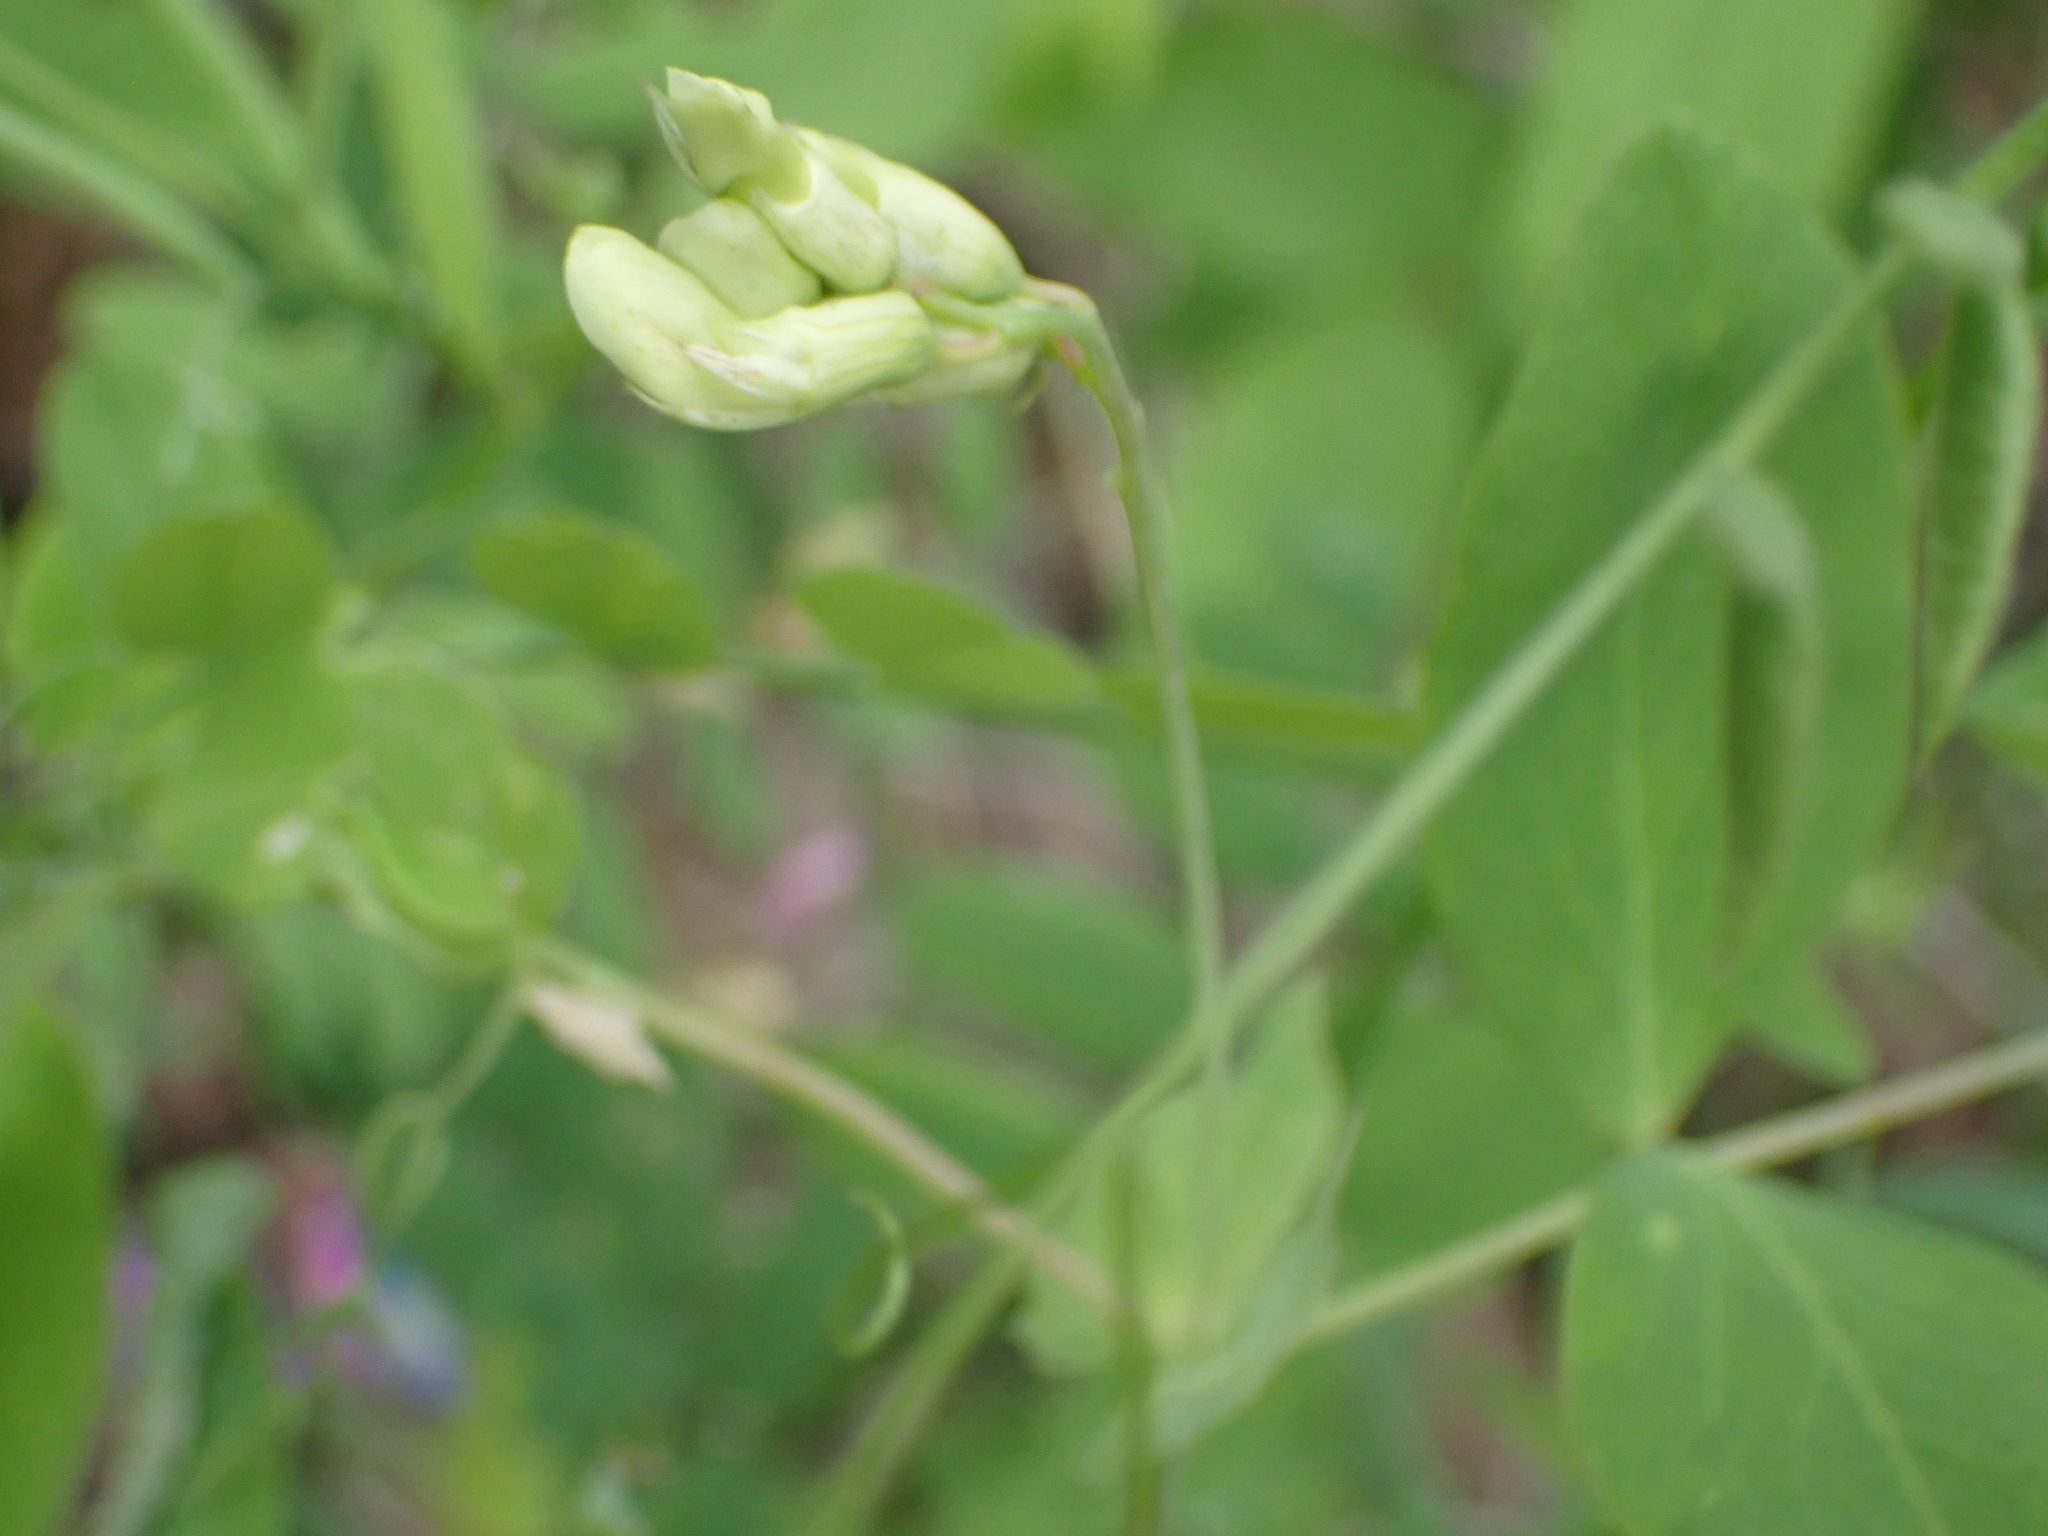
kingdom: Plantae
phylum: Tracheophyta
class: Magnoliopsida
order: Fabales
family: Fabaceae
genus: Lathyrus
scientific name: Lathyrus ochroleucus
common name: Pale vetchling
